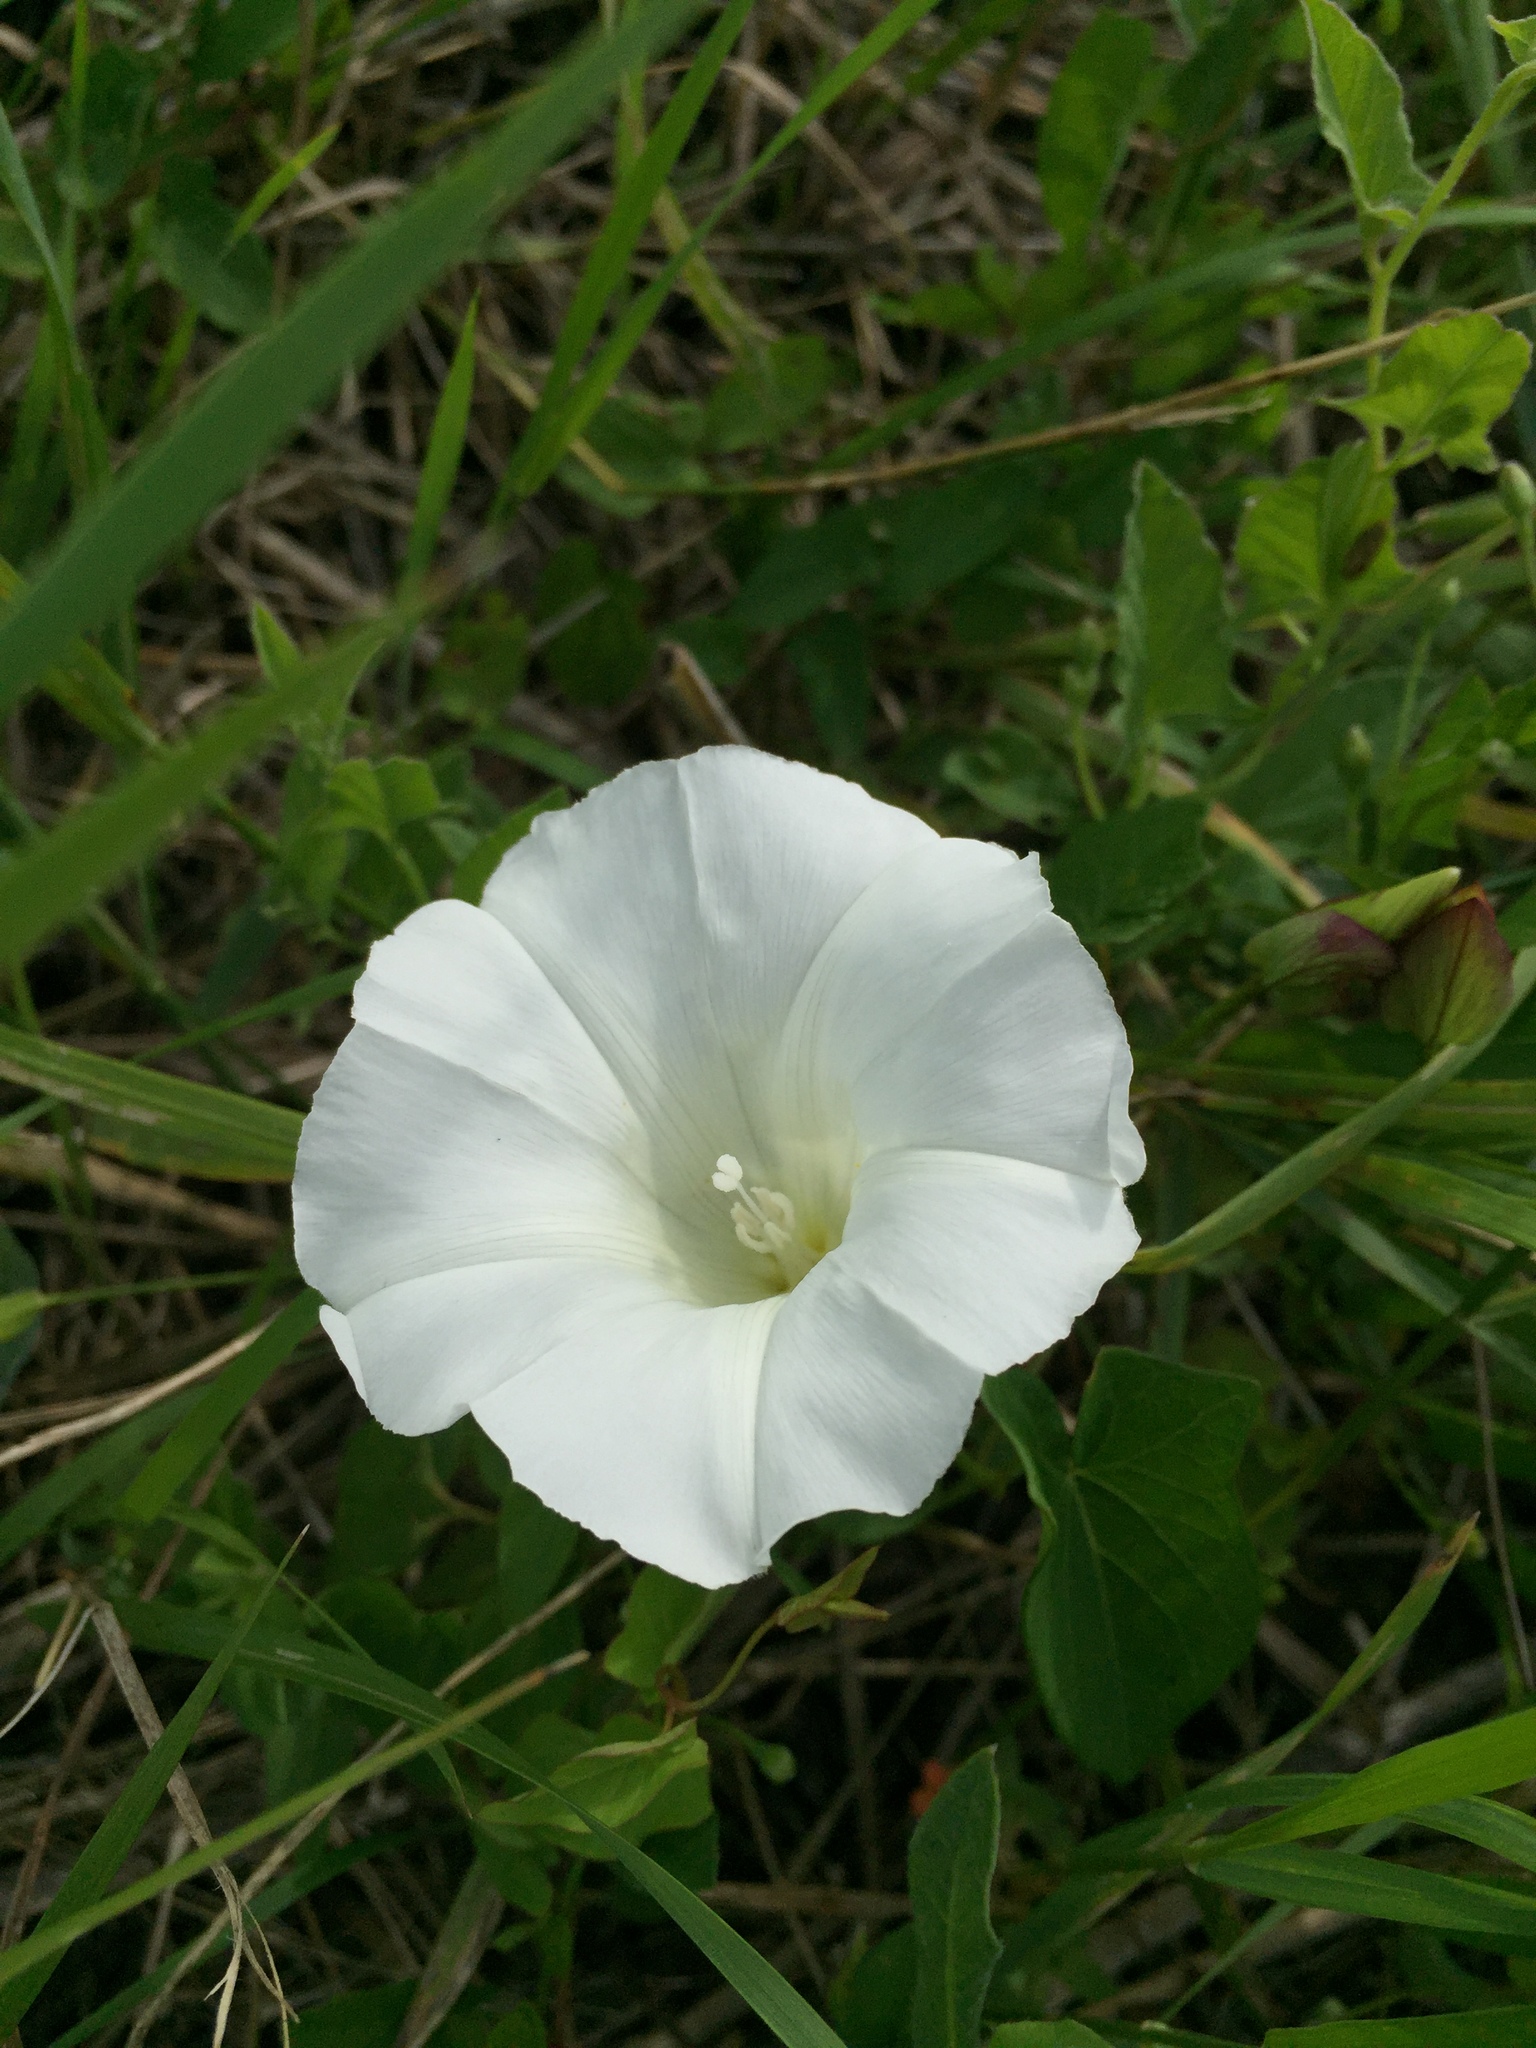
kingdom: Plantae
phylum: Tracheophyta
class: Magnoliopsida
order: Solanales
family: Convolvulaceae
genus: Calystegia
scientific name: Calystegia sepium
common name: Hedge bindweed
